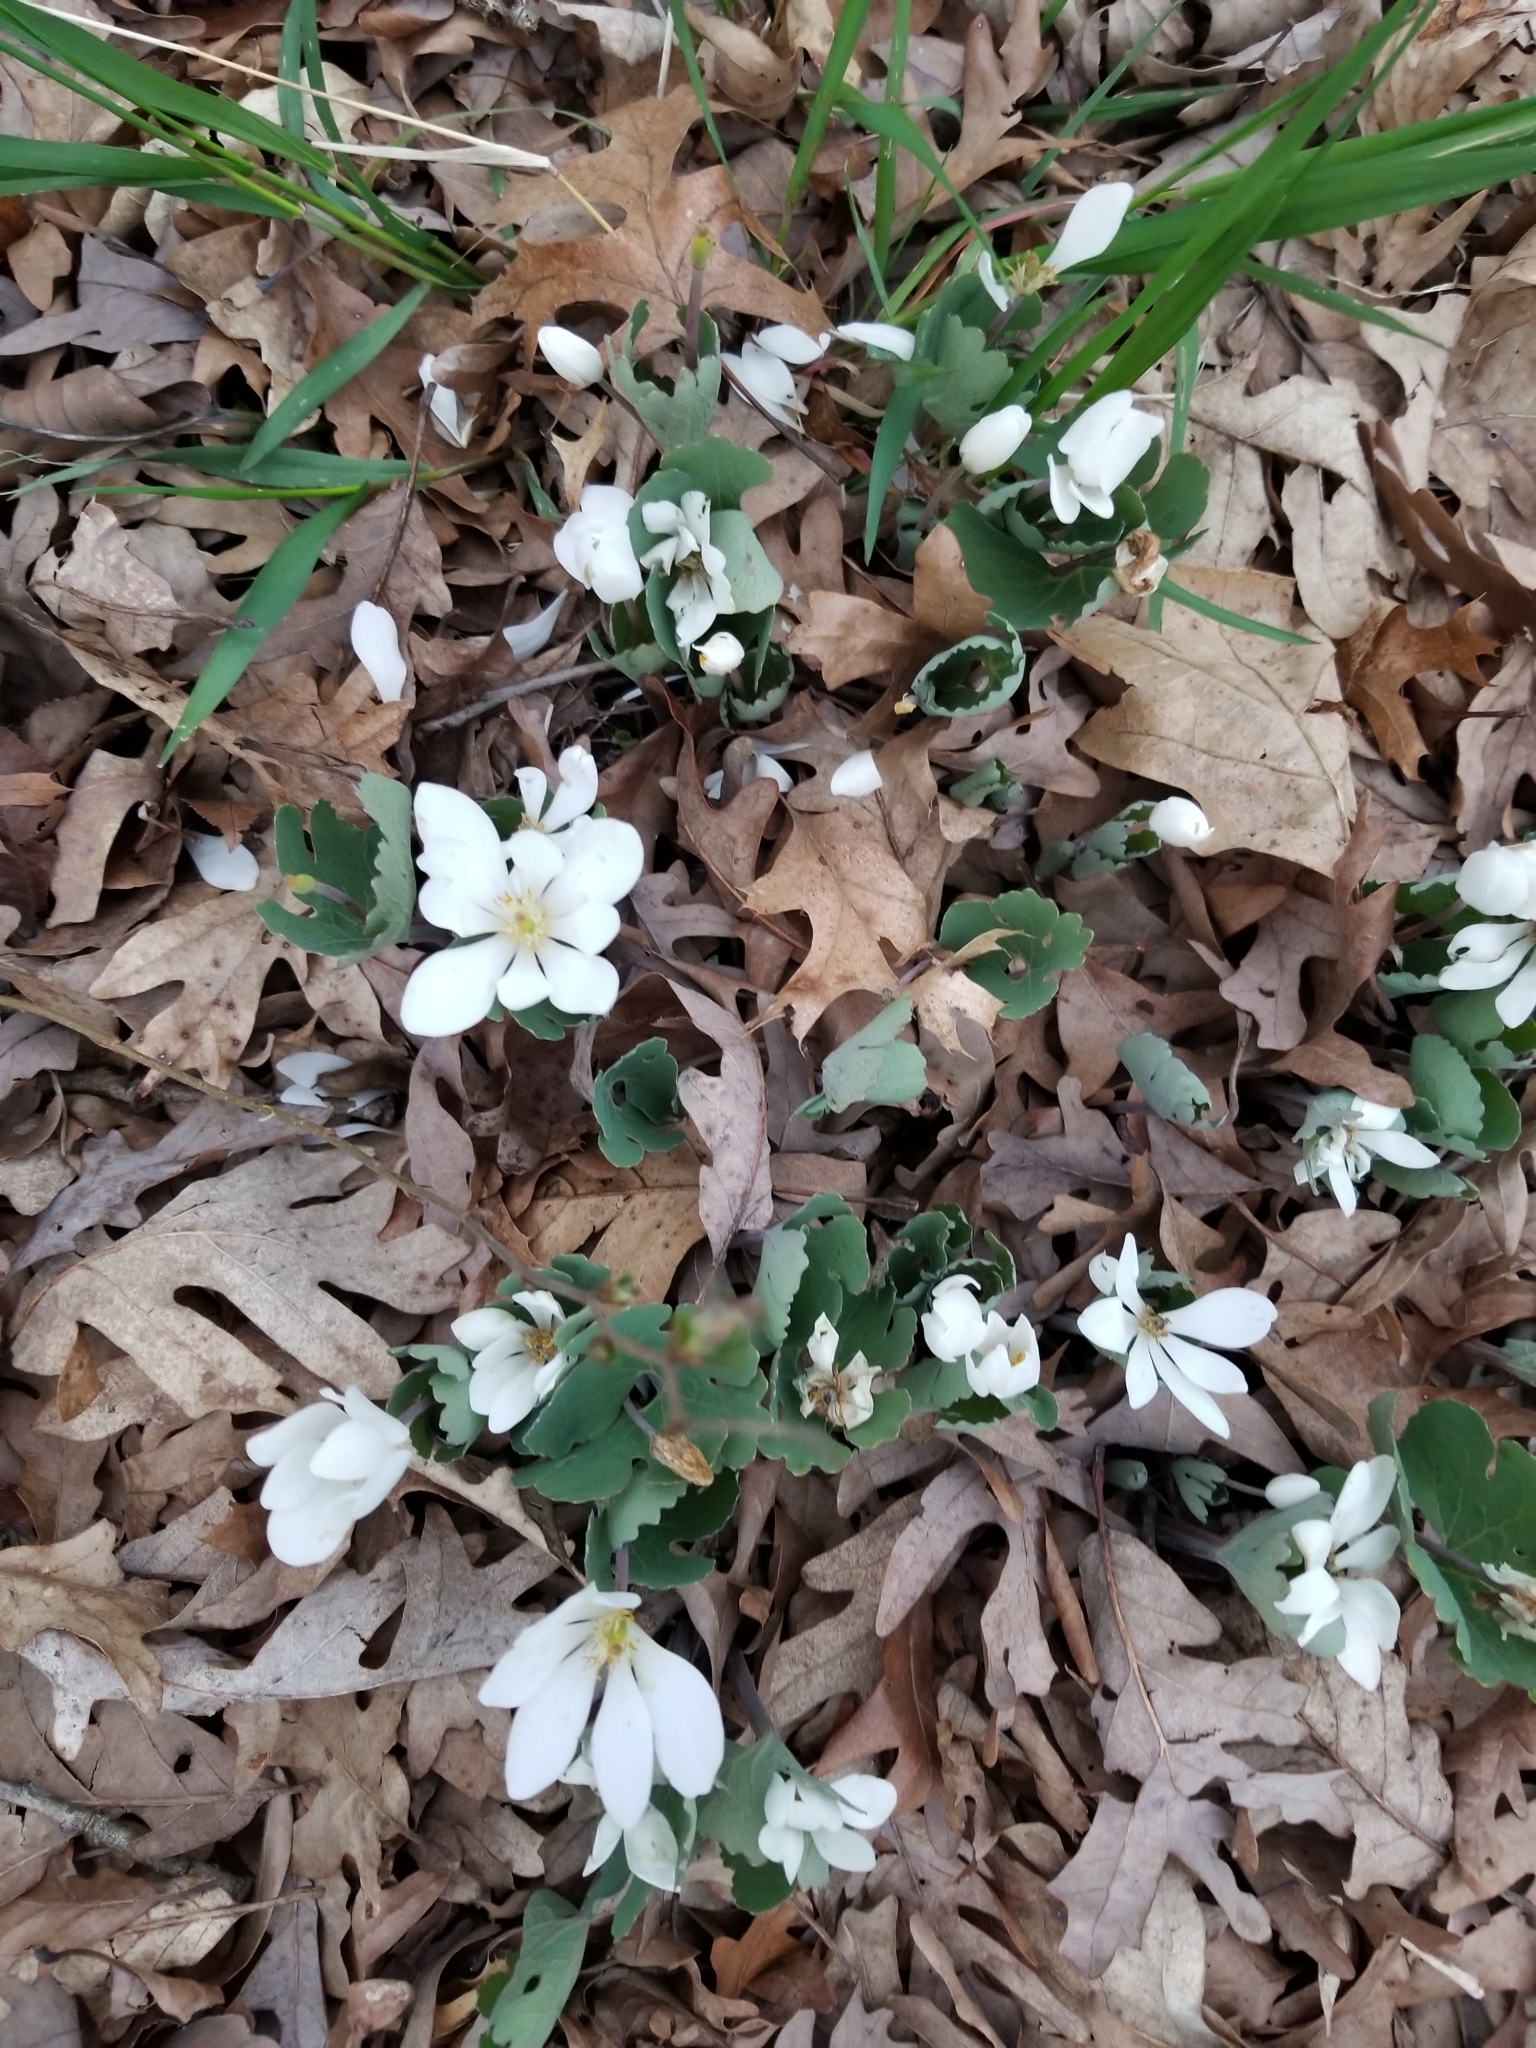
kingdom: Plantae
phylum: Tracheophyta
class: Magnoliopsida
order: Ranunculales
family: Papaveraceae
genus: Sanguinaria
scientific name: Sanguinaria canadensis
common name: Bloodroot
